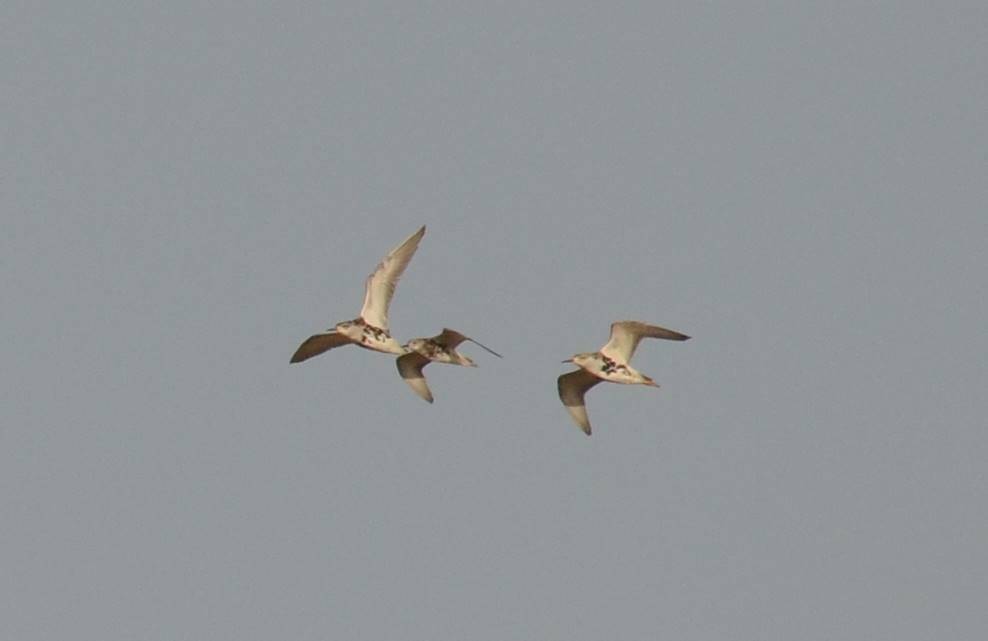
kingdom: Animalia
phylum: Chordata
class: Aves
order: Charadriiformes
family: Scolopacidae
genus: Calidris
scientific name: Calidris pugnax
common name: Ruff
